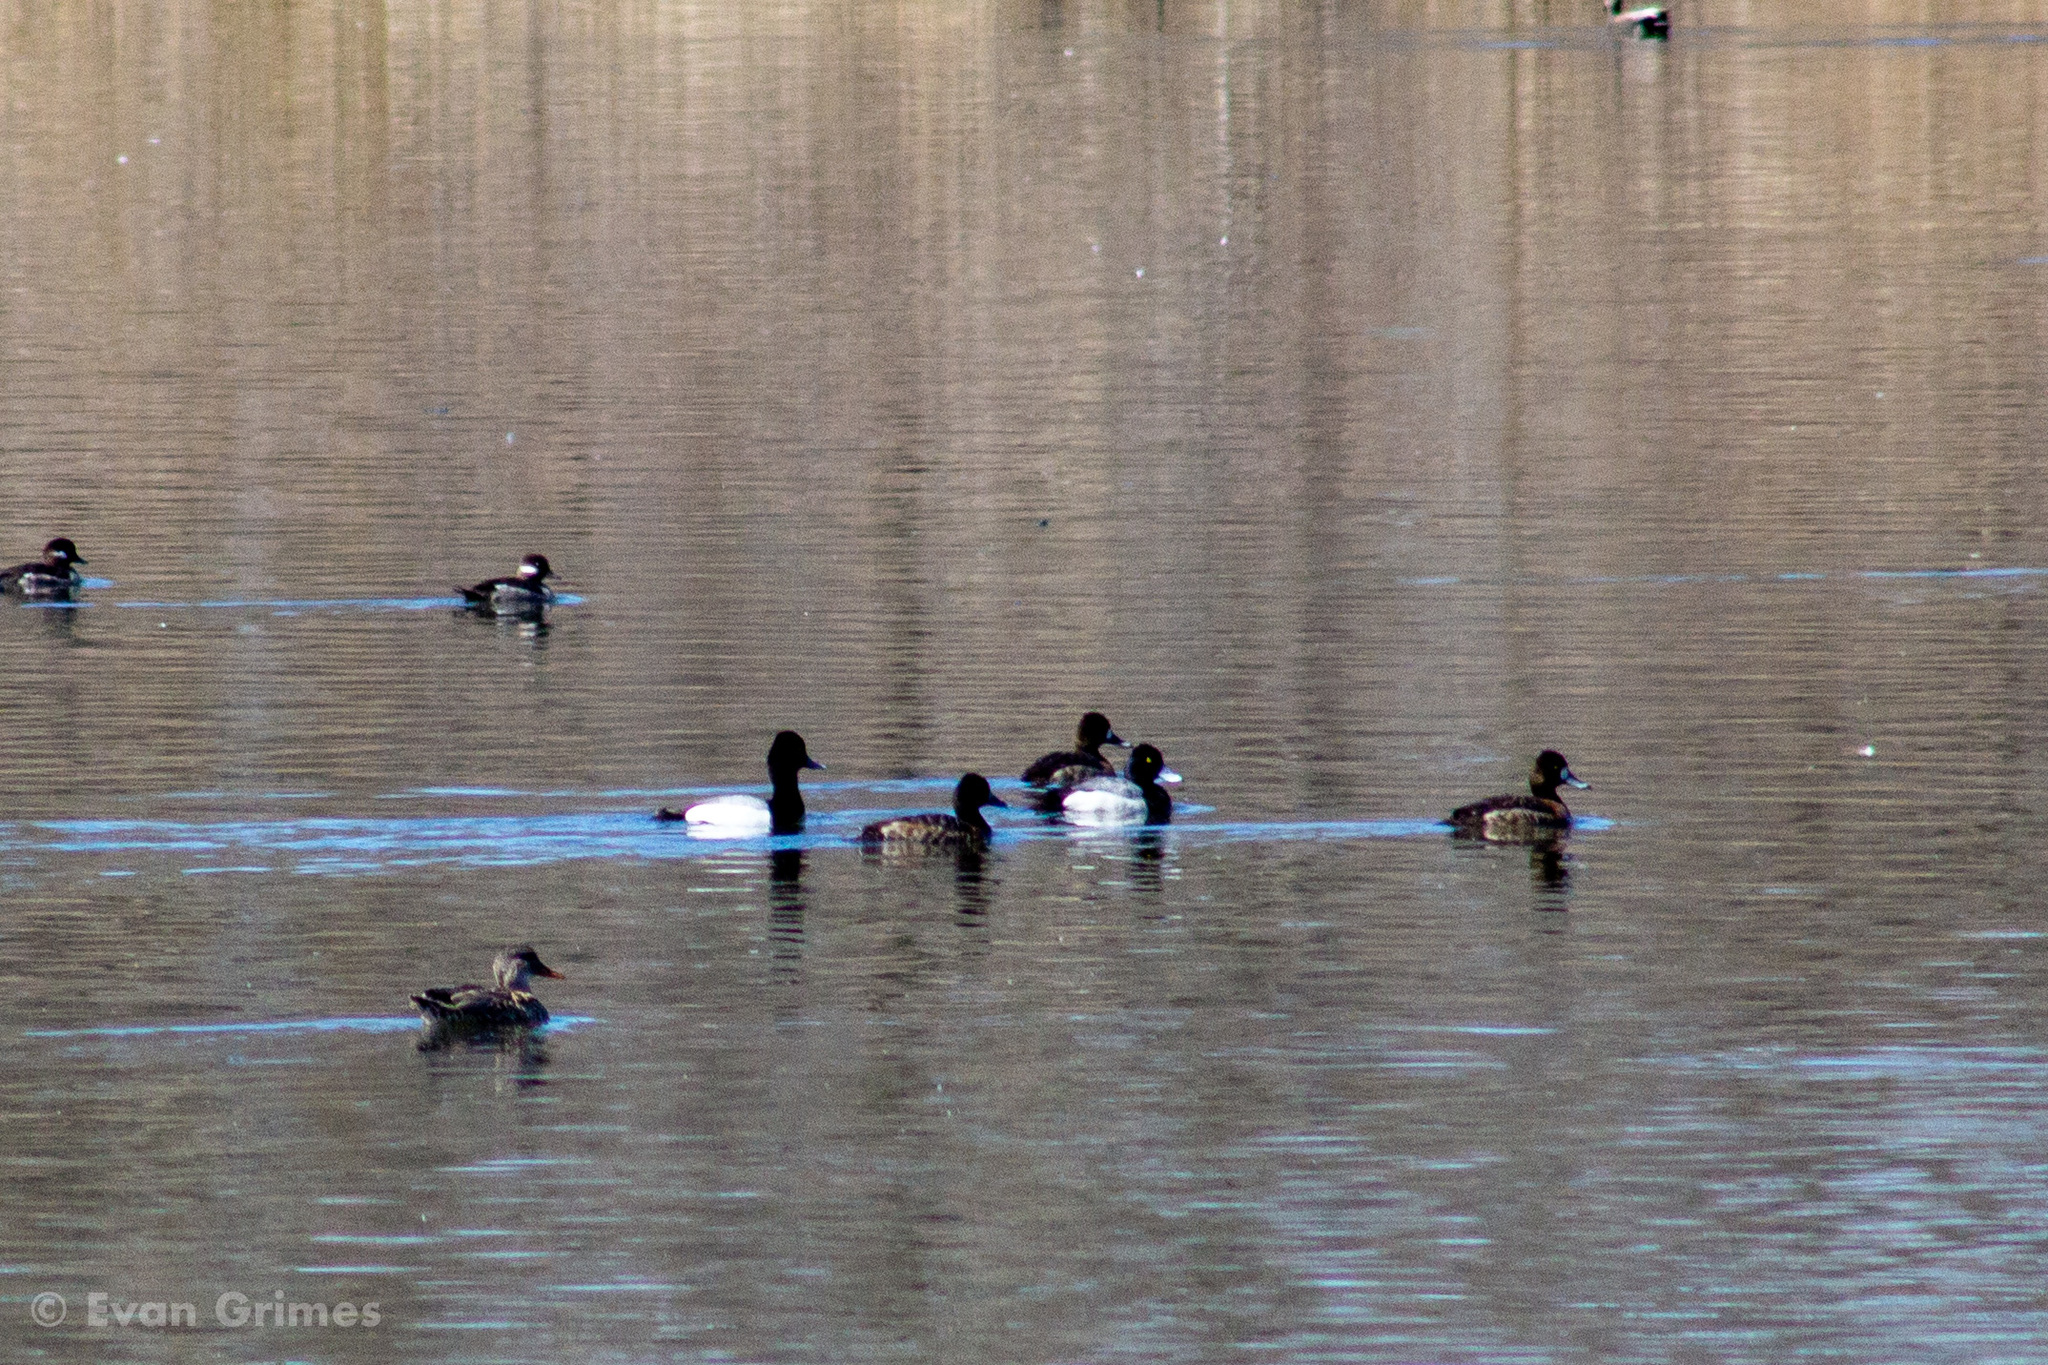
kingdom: Animalia
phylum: Chordata
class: Aves
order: Anseriformes
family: Anatidae
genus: Aythya
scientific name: Aythya affinis
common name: Lesser scaup
